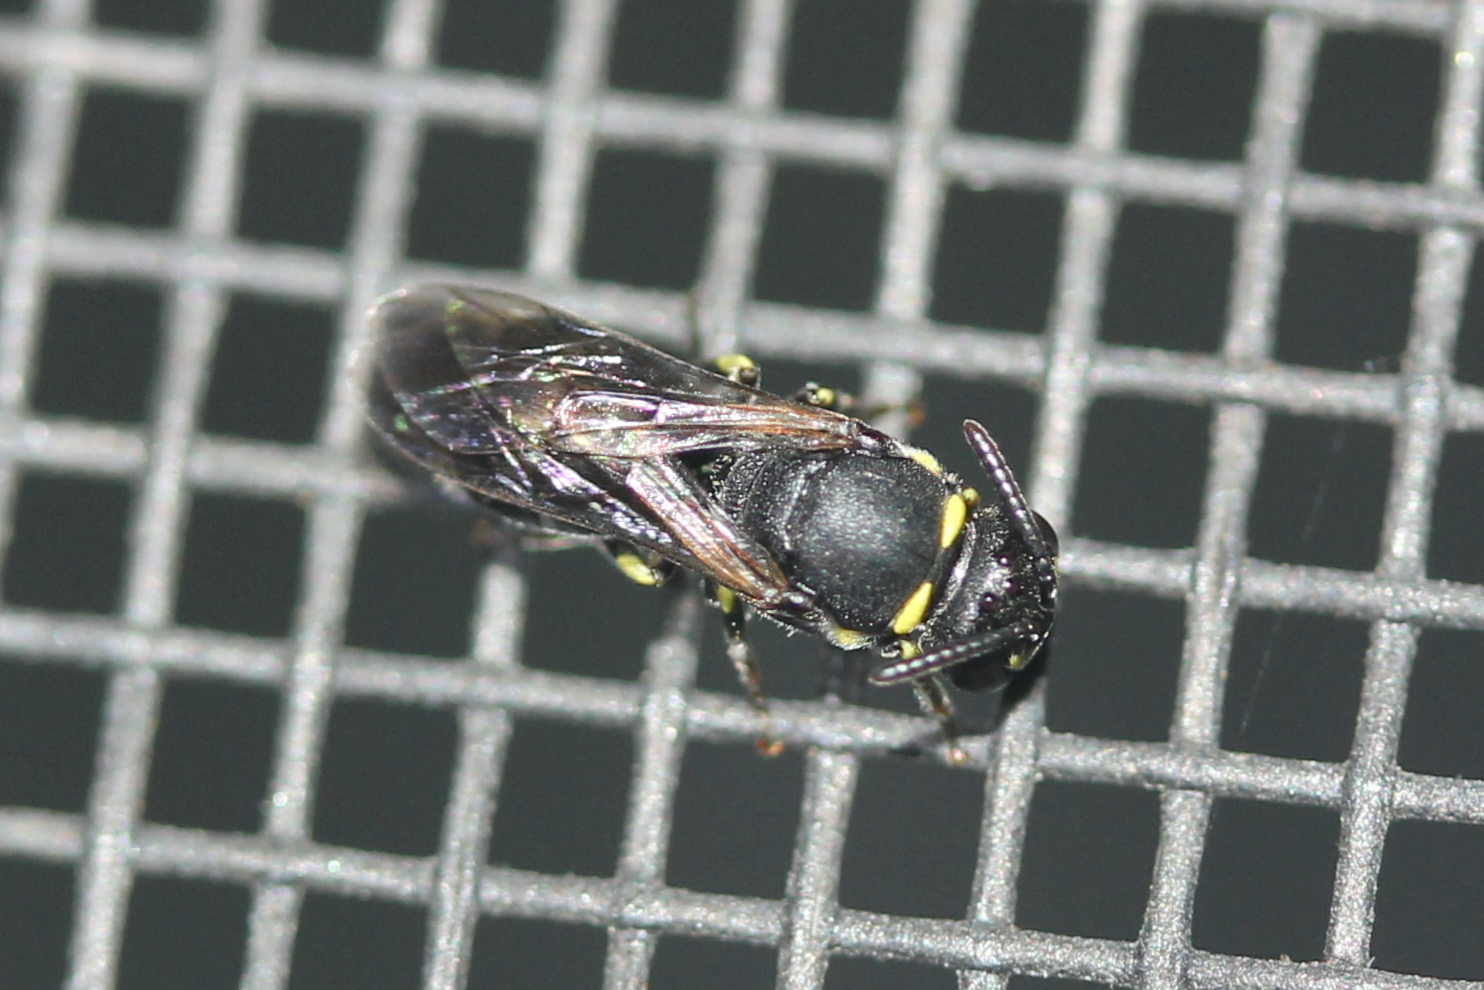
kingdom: Animalia
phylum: Arthropoda
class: Insecta
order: Hymenoptera
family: Colletidae
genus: Hylaeus
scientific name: Hylaeus modestus
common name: Yellow-faced bee
